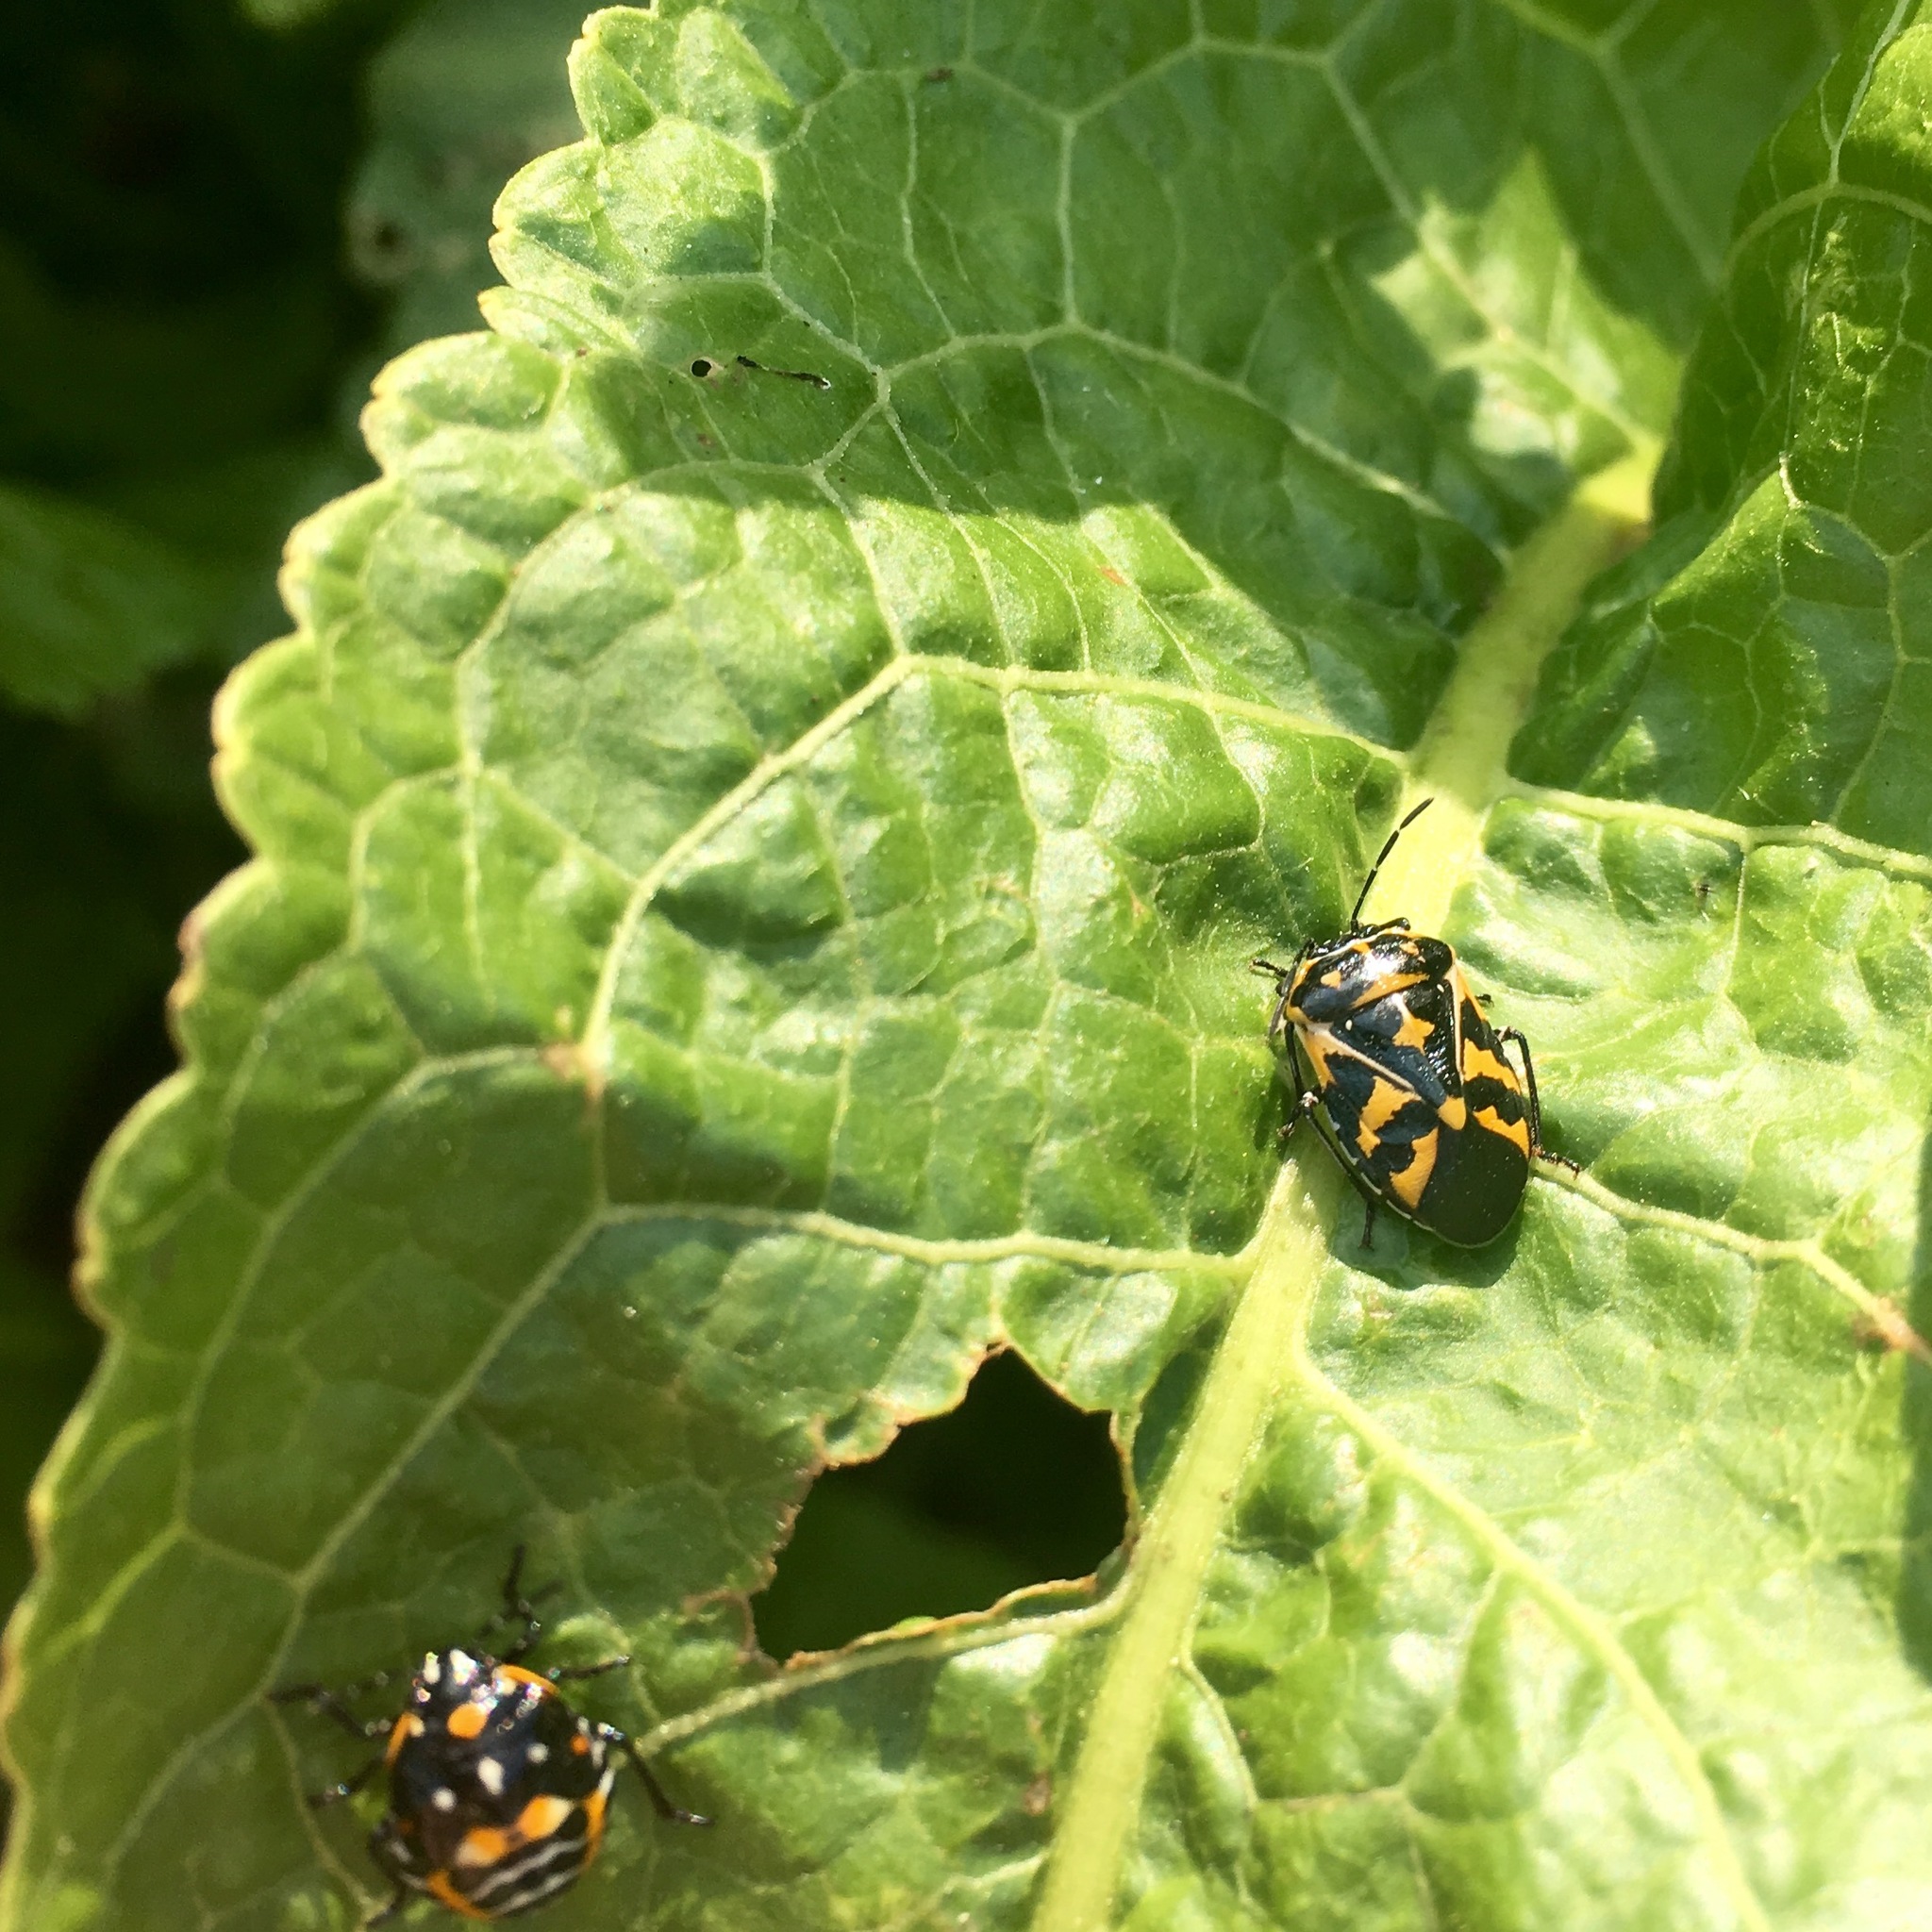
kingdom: Animalia
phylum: Arthropoda
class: Insecta
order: Hemiptera
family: Pentatomidae
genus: Murgantia
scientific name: Murgantia histrionica
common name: Harlequin bug
